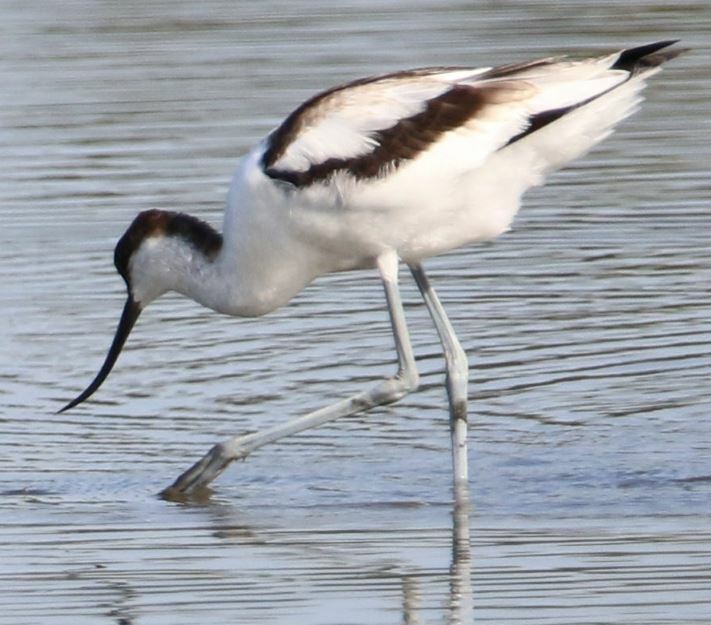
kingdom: Animalia
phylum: Chordata
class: Aves
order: Charadriiformes
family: Recurvirostridae
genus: Recurvirostra
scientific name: Recurvirostra avosetta
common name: Pied avocet
